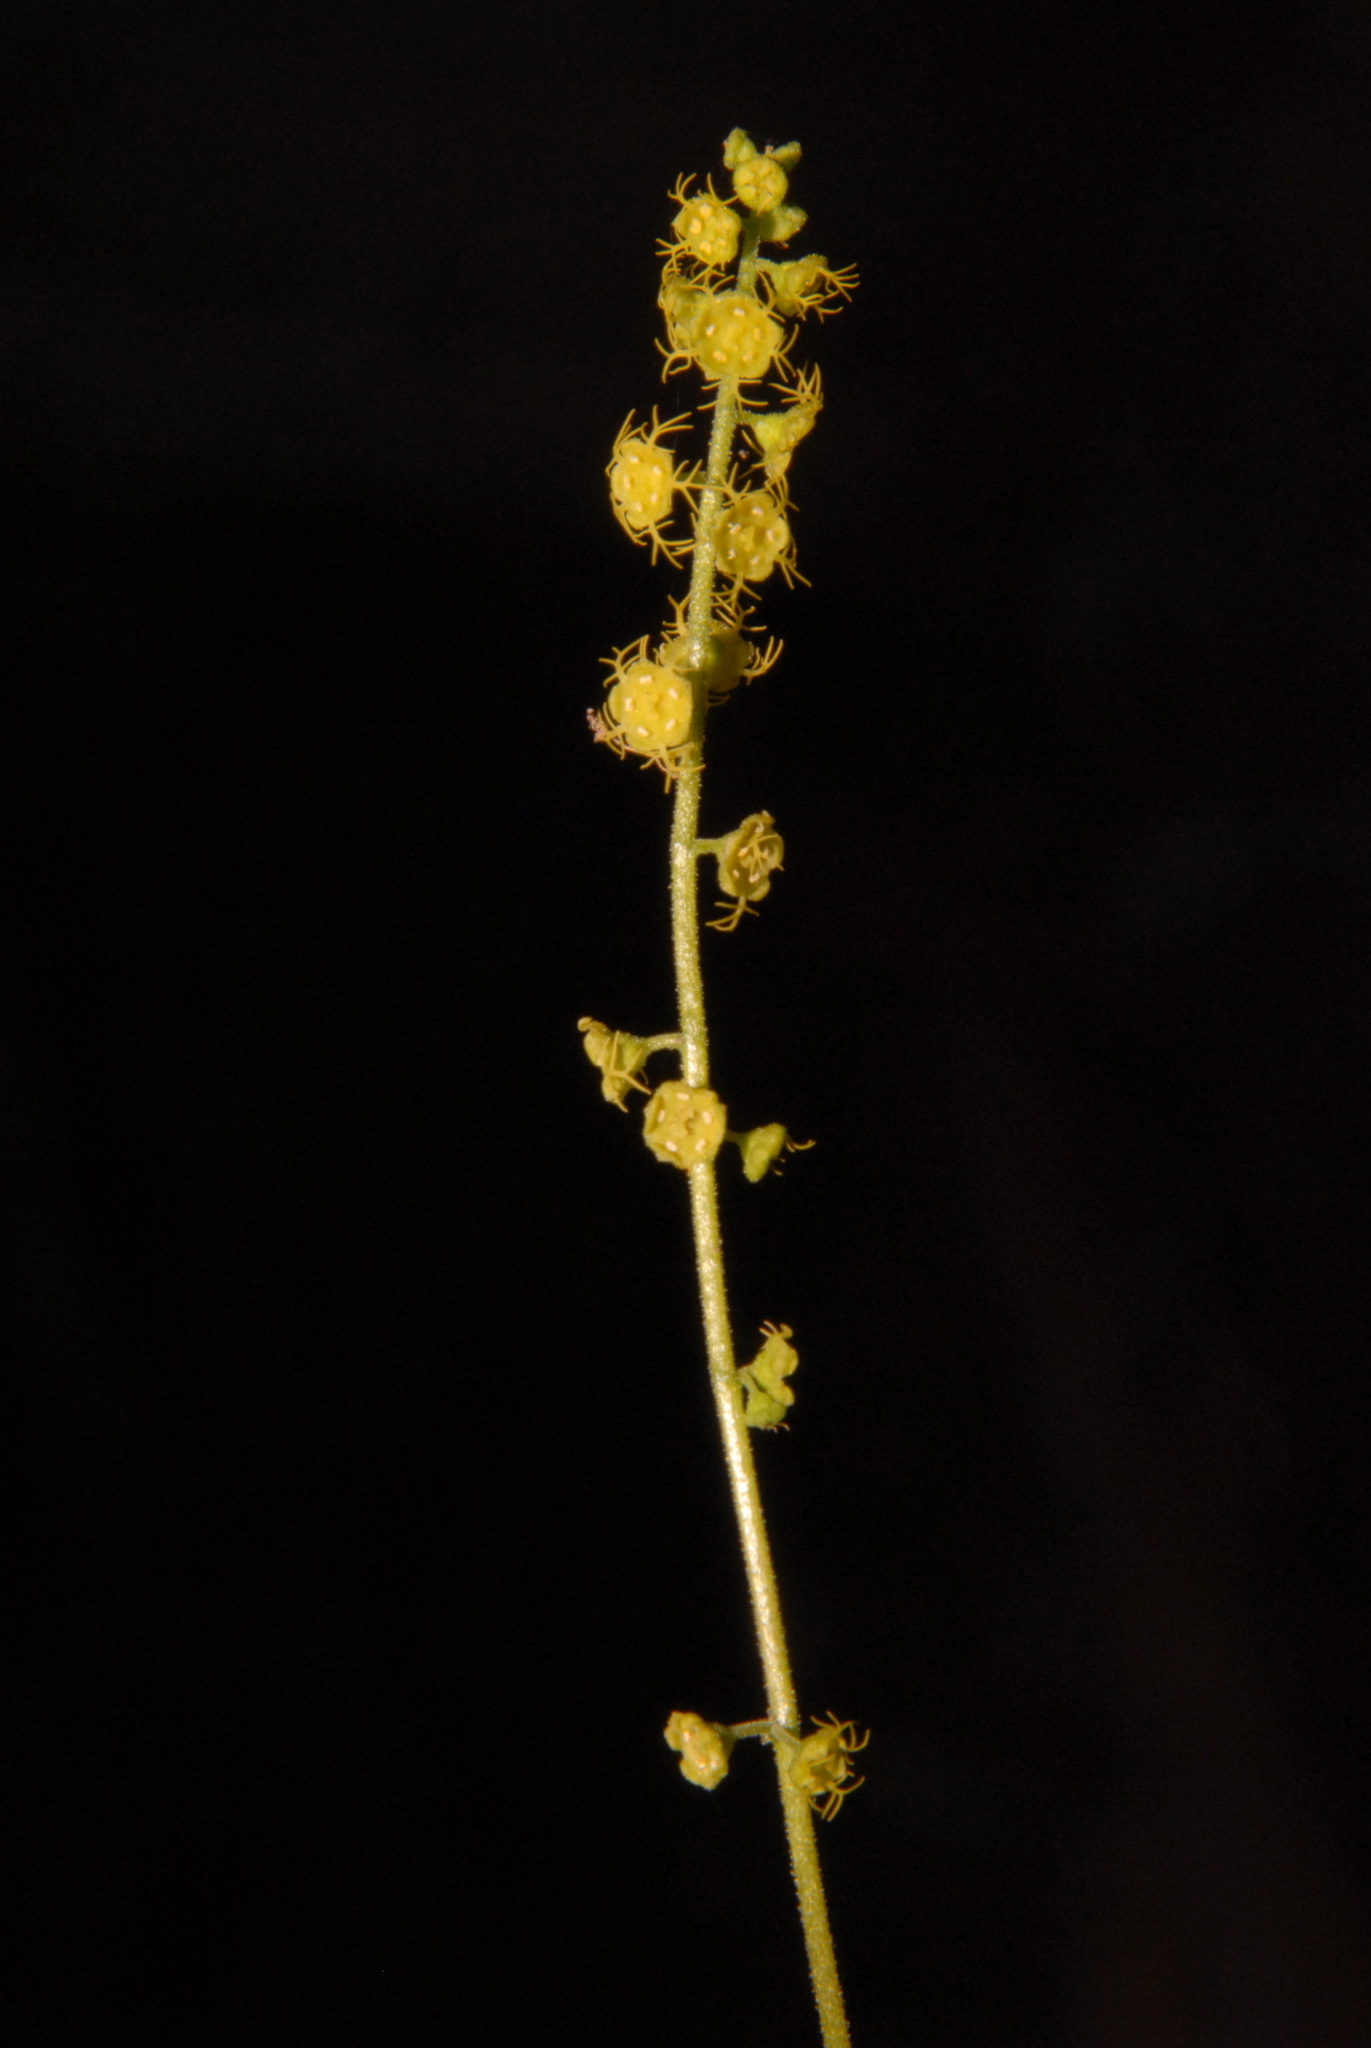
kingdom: Plantae
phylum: Tracheophyta
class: Magnoliopsida
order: Saxifragales
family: Saxifragaceae
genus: Brewerimitella
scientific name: Brewerimitella breweri
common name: Brewer's bishop's-cap
